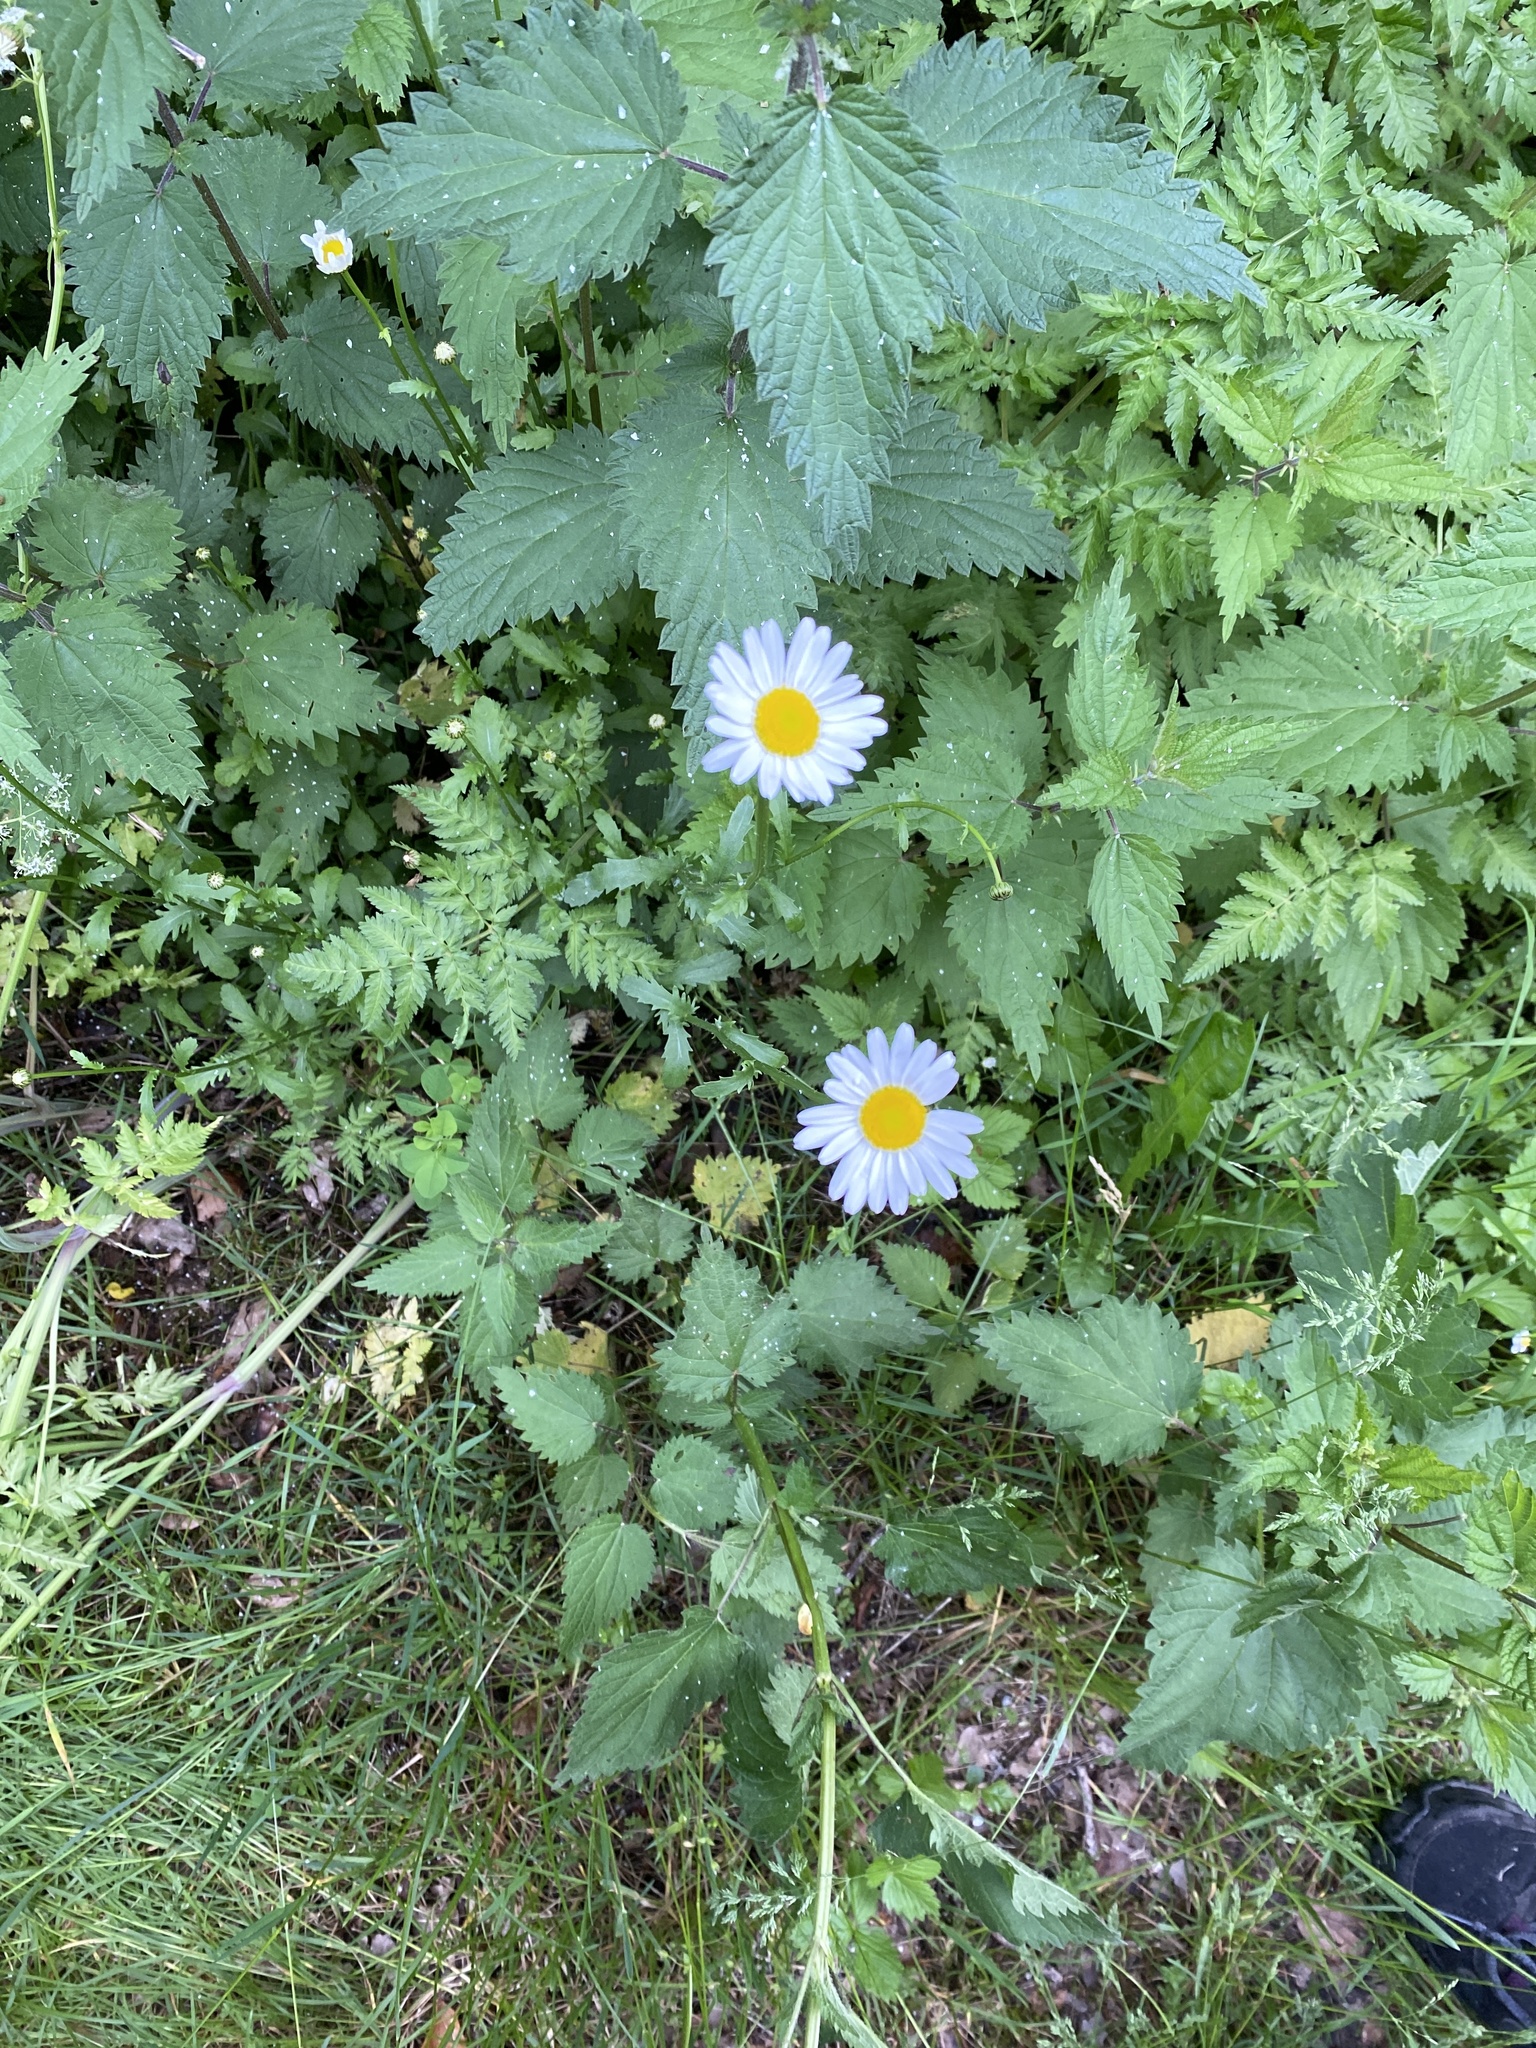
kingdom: Plantae
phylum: Tracheophyta
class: Magnoliopsida
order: Asterales
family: Asteraceae
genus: Leucanthemum
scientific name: Leucanthemum vulgare
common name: Oxeye daisy
